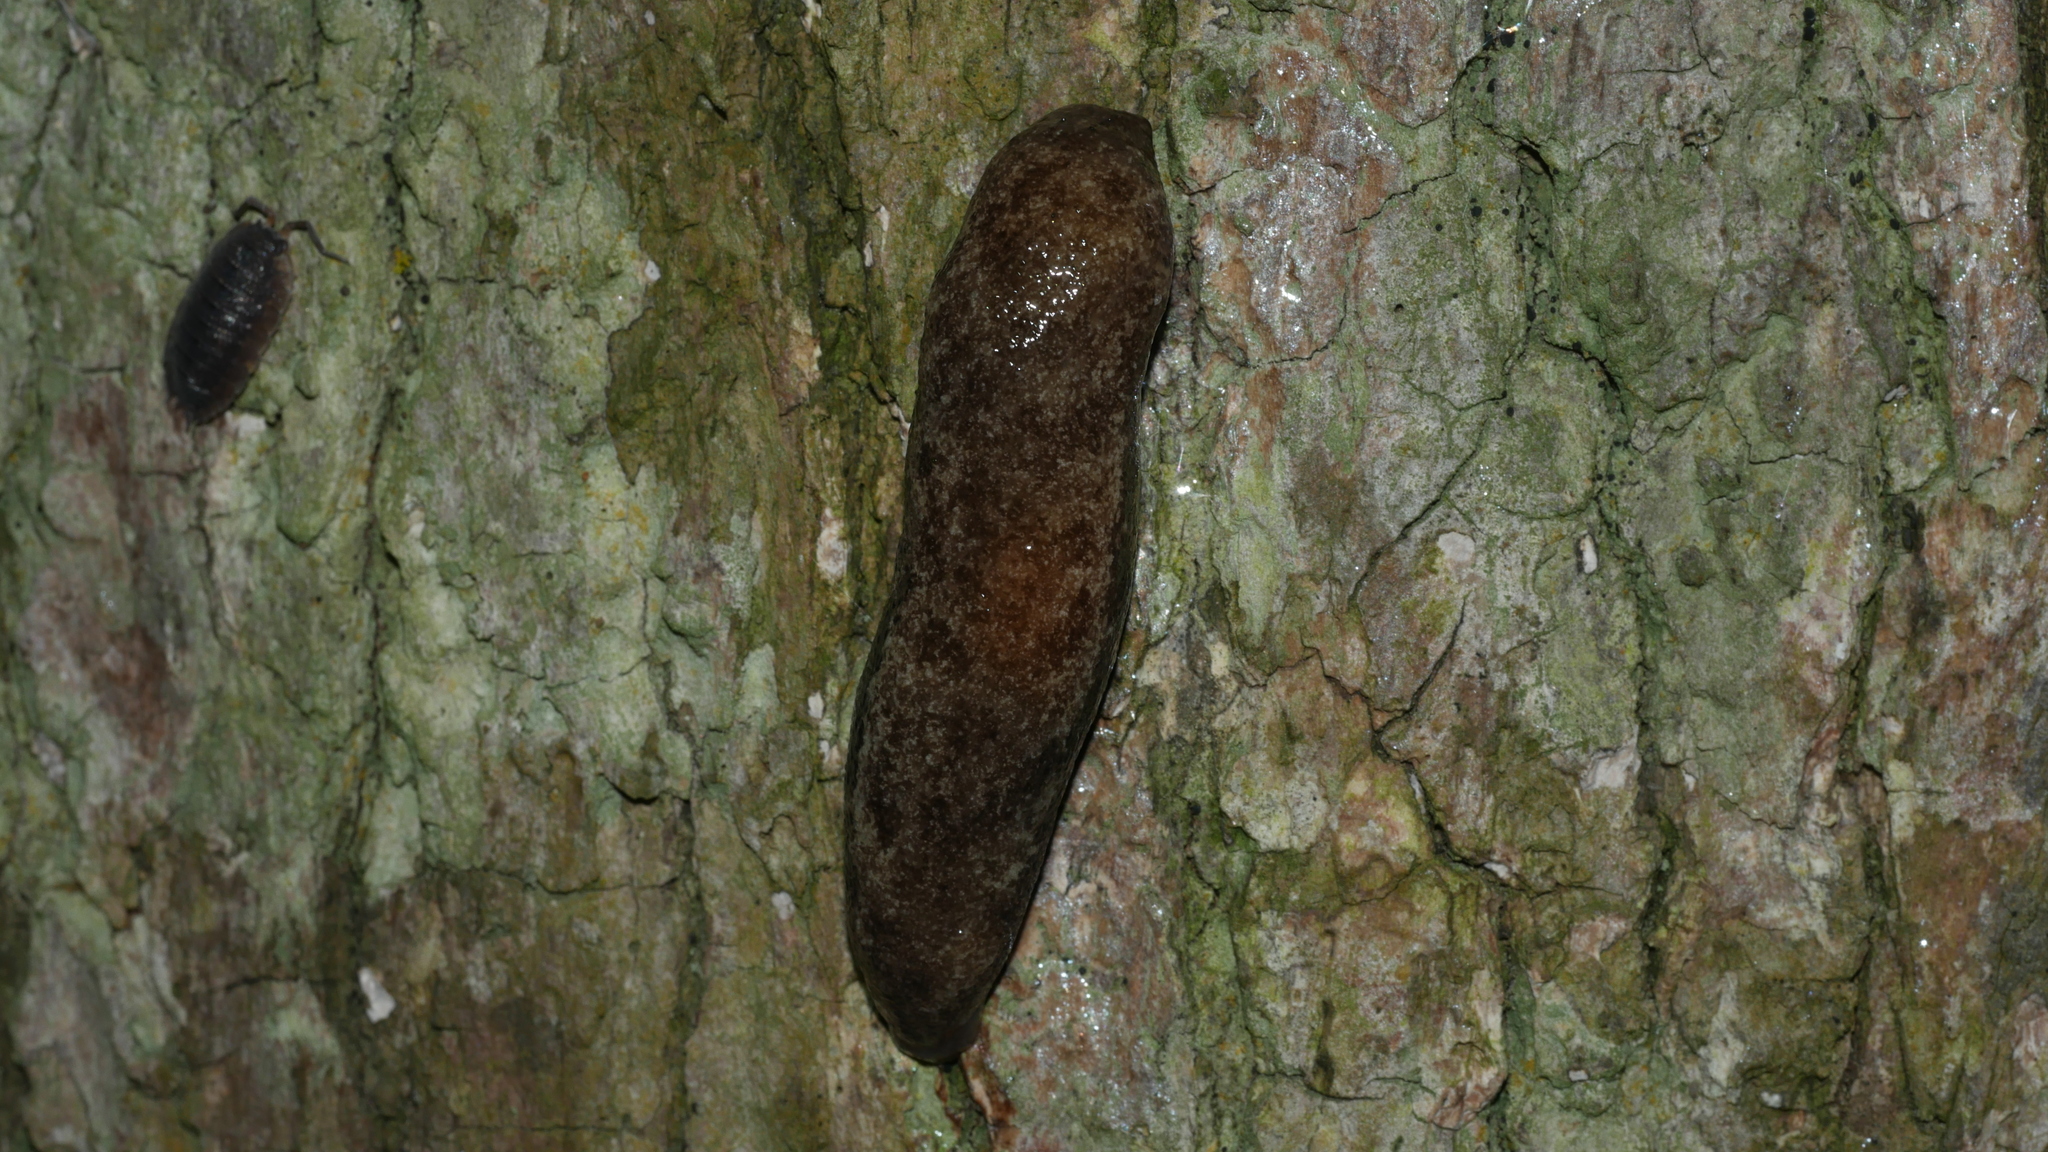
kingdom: Animalia
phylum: Mollusca
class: Gastropoda
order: Stylommatophora
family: Philomycidae
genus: Megapallifera
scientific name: Megapallifera mutabilis
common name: Changeable mantleslug
